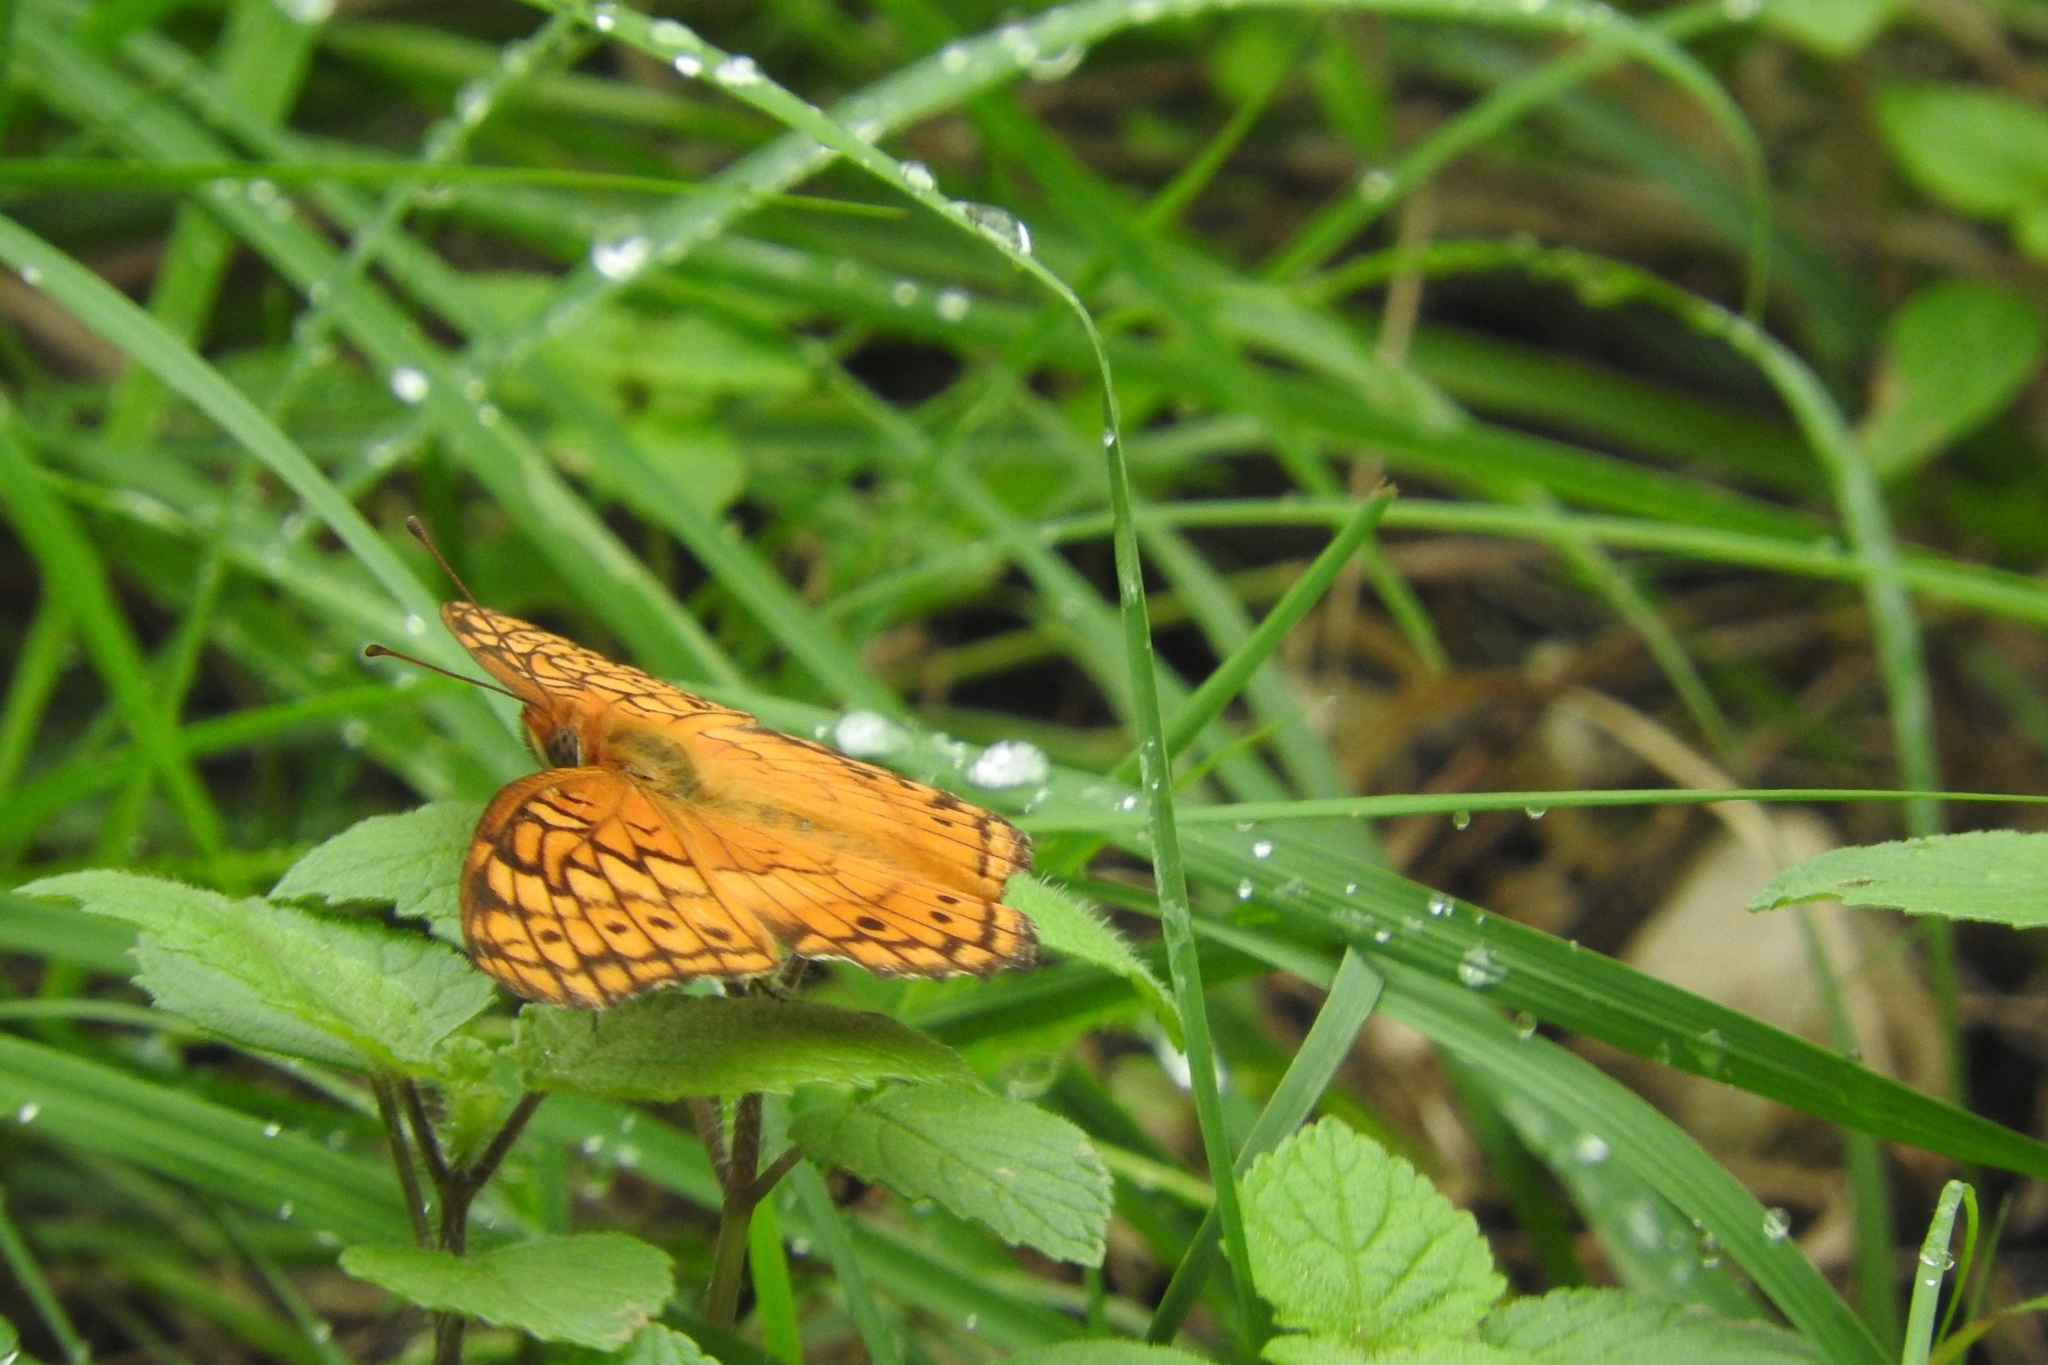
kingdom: Animalia
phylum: Arthropoda
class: Insecta
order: Lepidoptera
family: Nymphalidae
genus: Euptoieta
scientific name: Euptoieta hegesia
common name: Mexican fritillary
